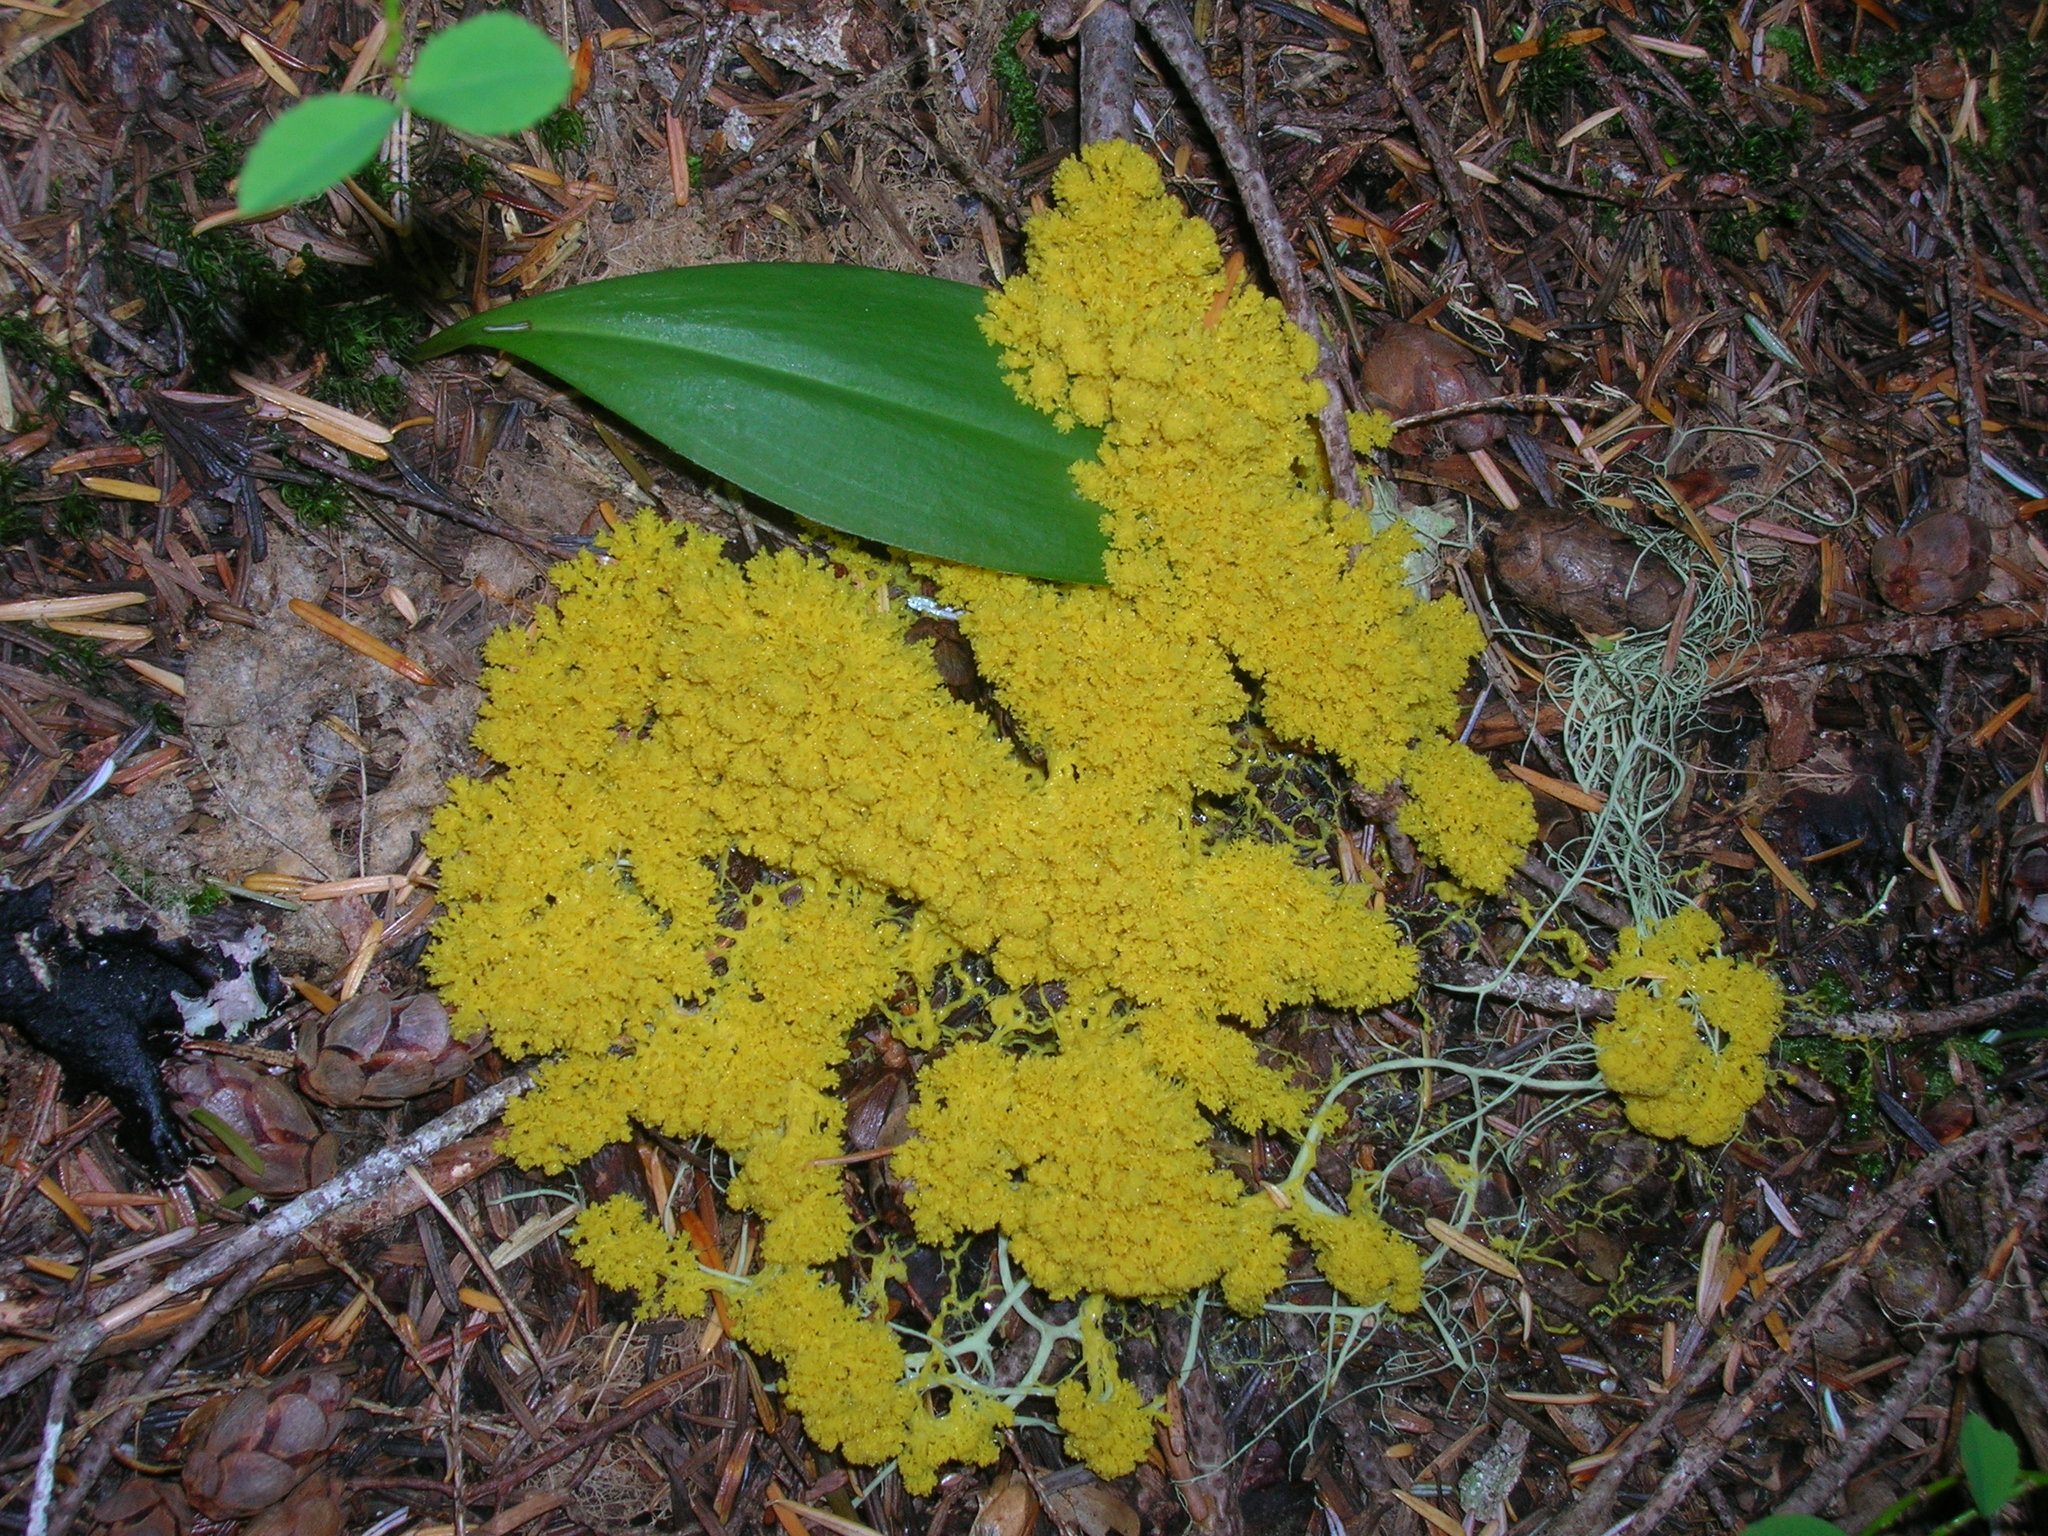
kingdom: Protozoa
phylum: Mycetozoa
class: Myxomycetes
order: Physarales
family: Physaraceae
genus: Fuligo
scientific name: Fuligo septica
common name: Dog vomit slime mold
